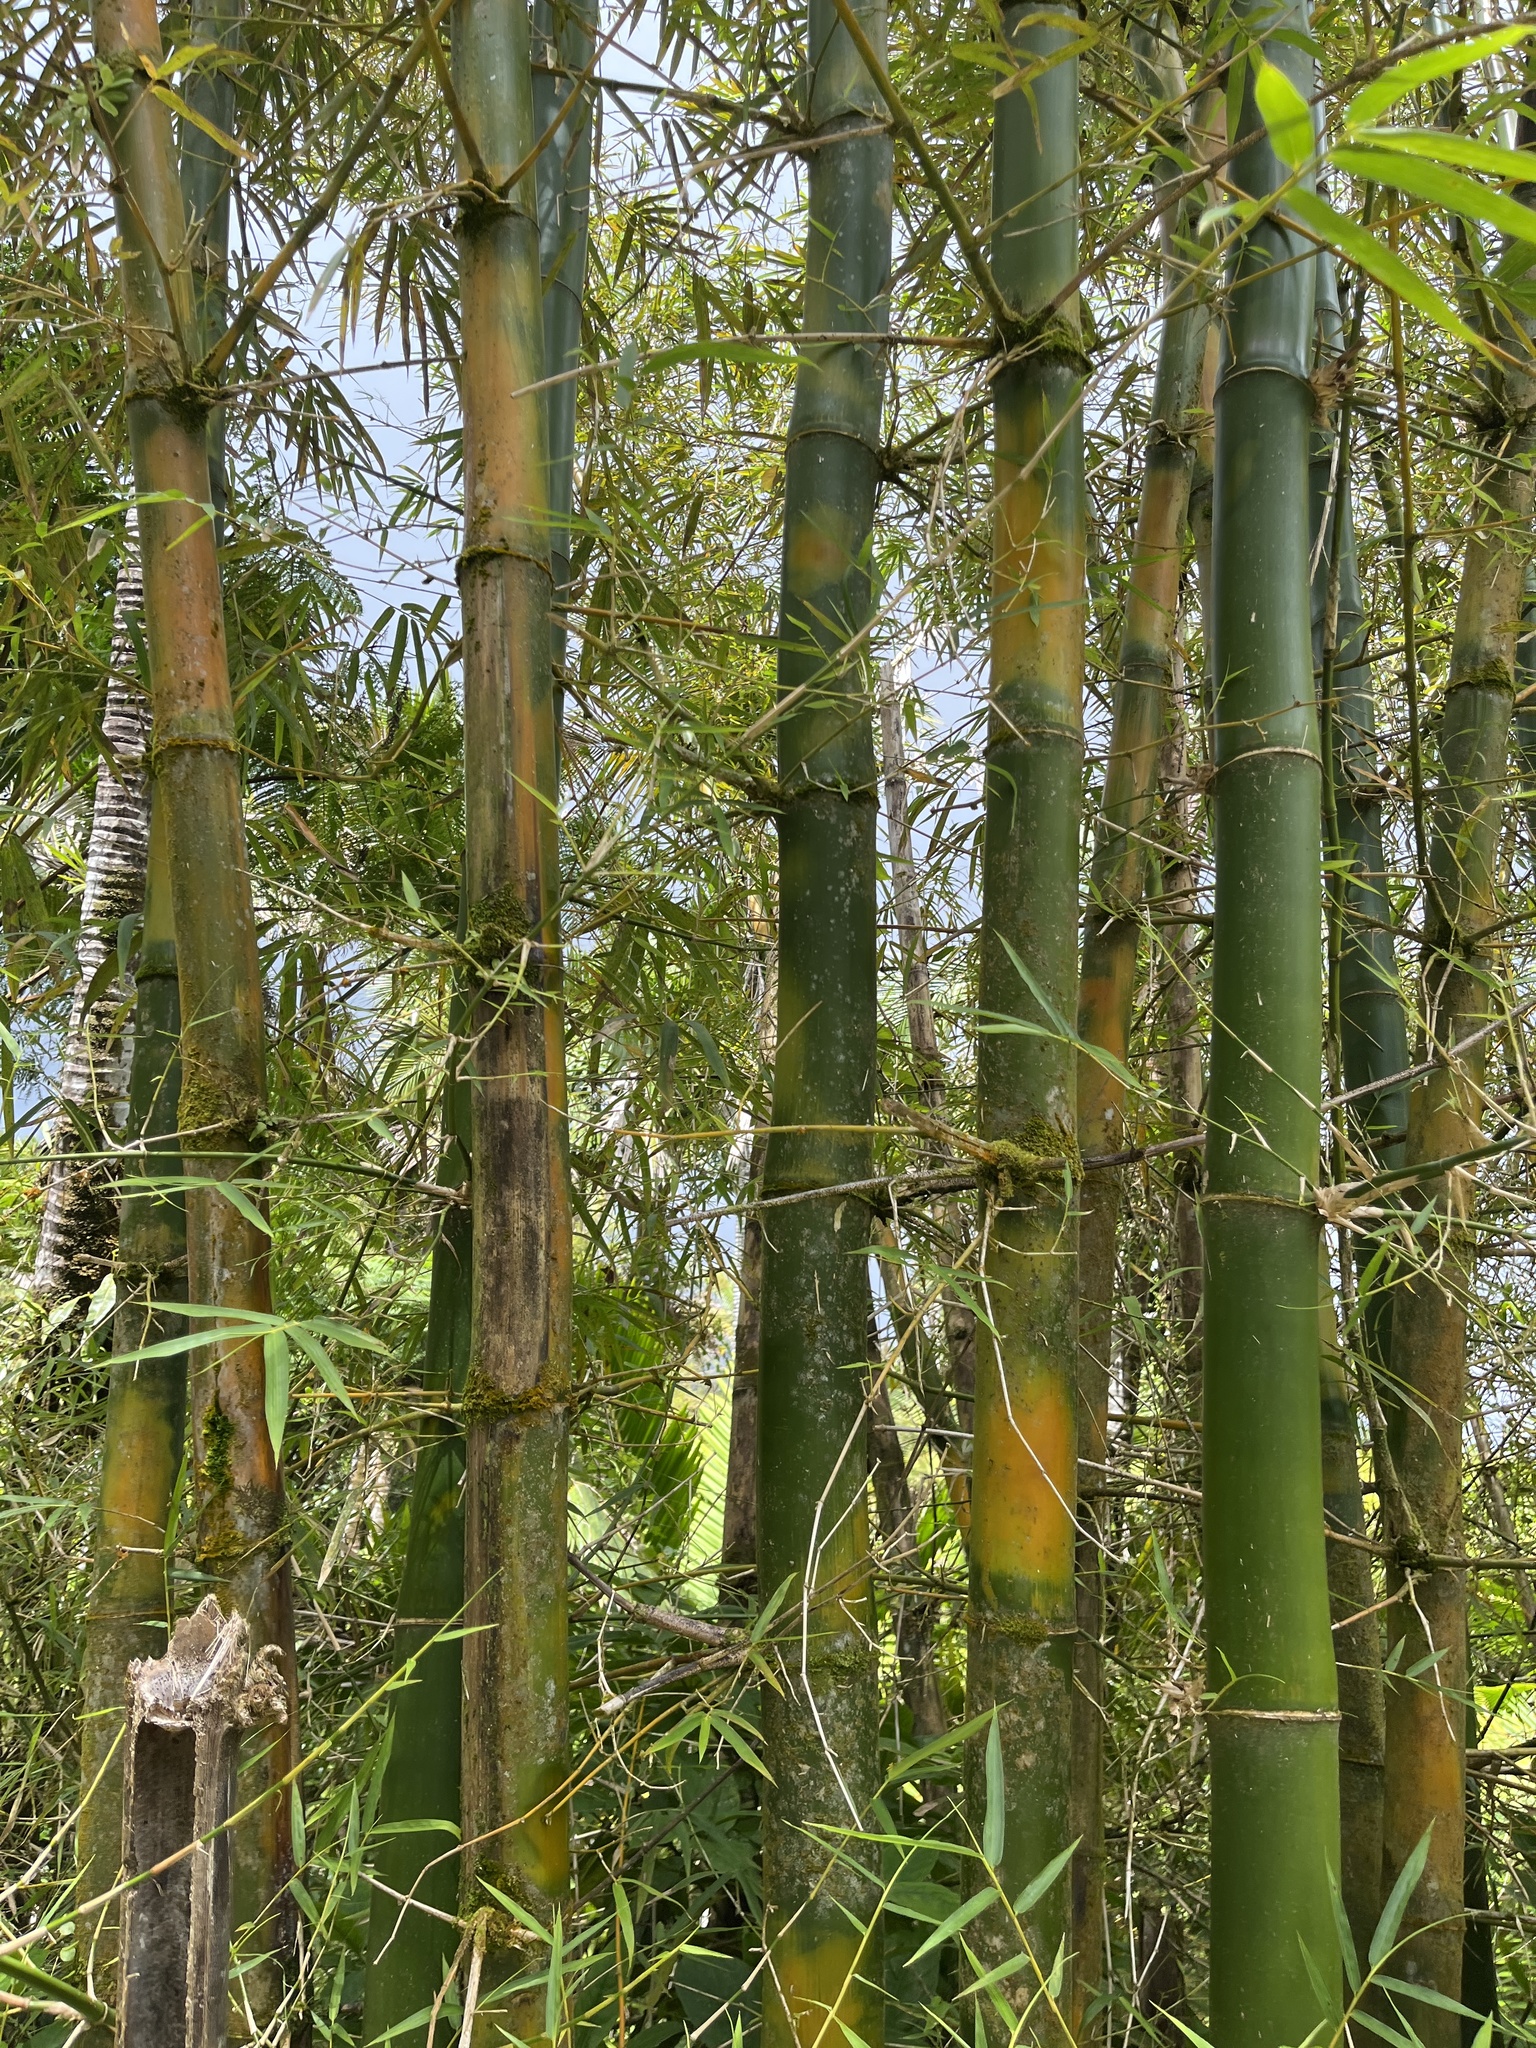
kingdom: Plantae
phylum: Tracheophyta
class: Liliopsida
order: Poales
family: Poaceae
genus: Bambusa
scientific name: Bambusa vulgaris
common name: Common bamboo
